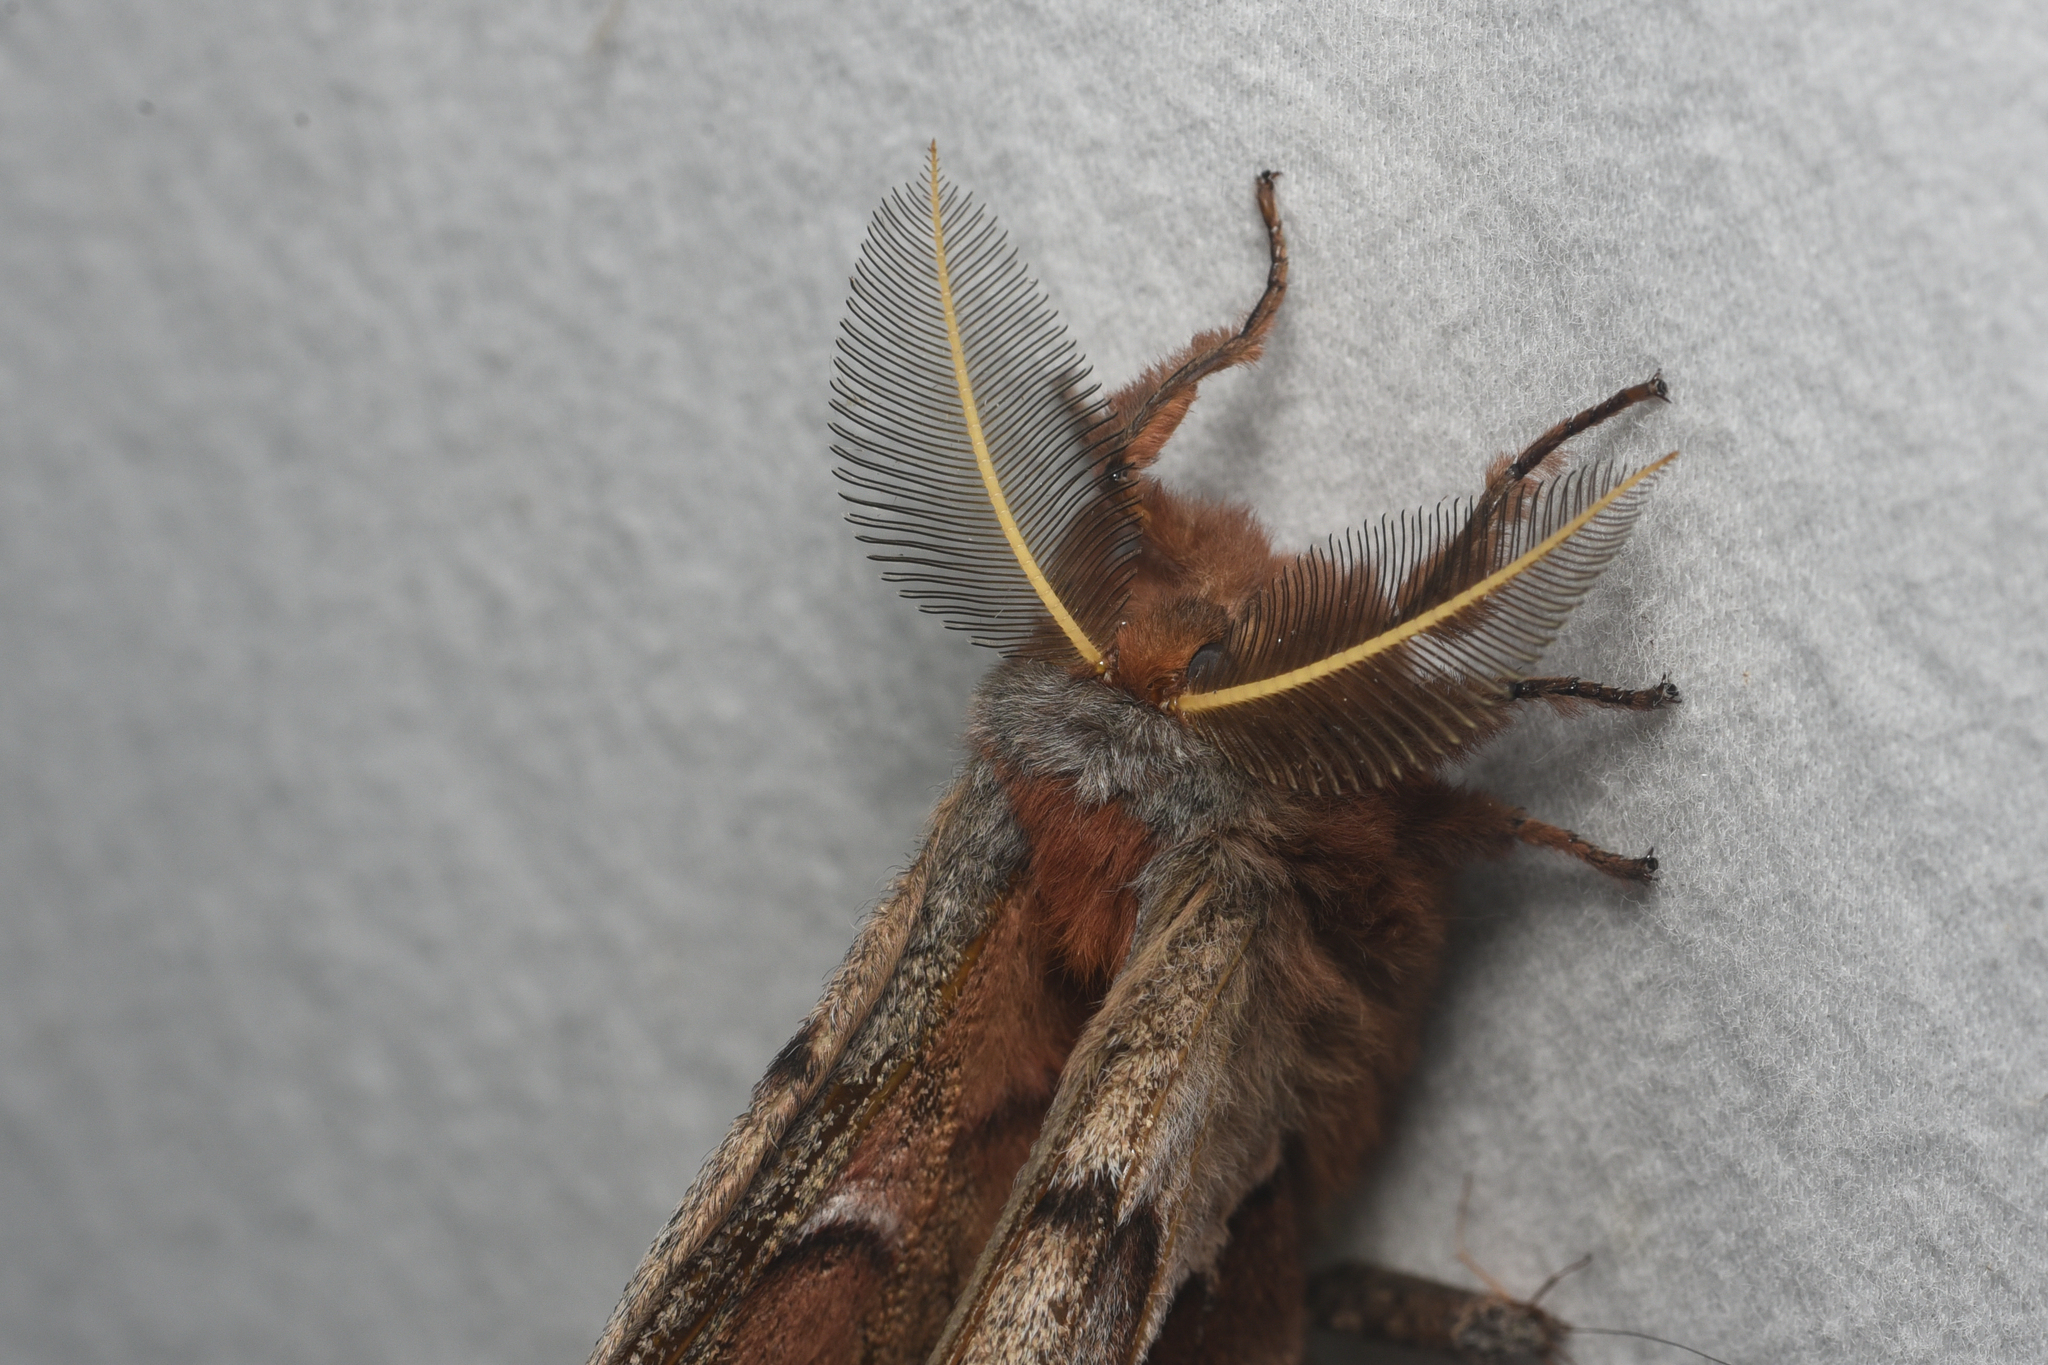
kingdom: Animalia
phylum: Arthropoda
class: Insecta
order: Lepidoptera
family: Saturniidae
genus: Antheraea
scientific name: Antheraea polyphemus
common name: Polyphemus moth
